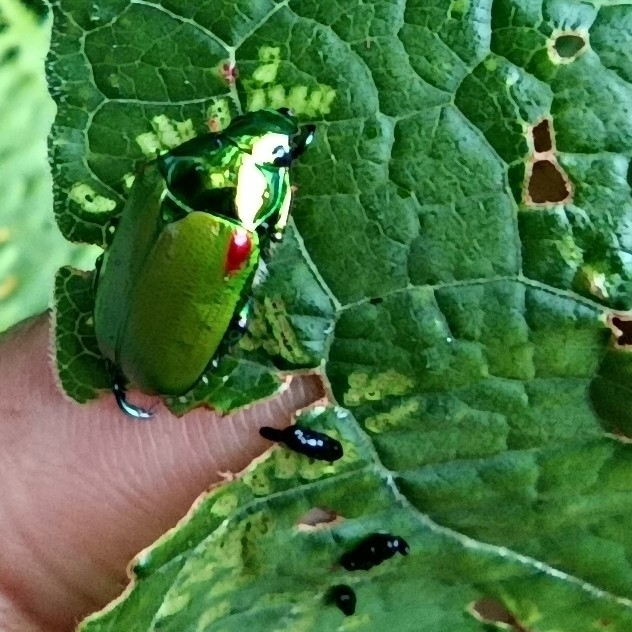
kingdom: Animalia
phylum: Arthropoda
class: Insecta
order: Coleoptera
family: Scarabaeidae
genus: Callistethus
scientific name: Callistethus stoliczkae
